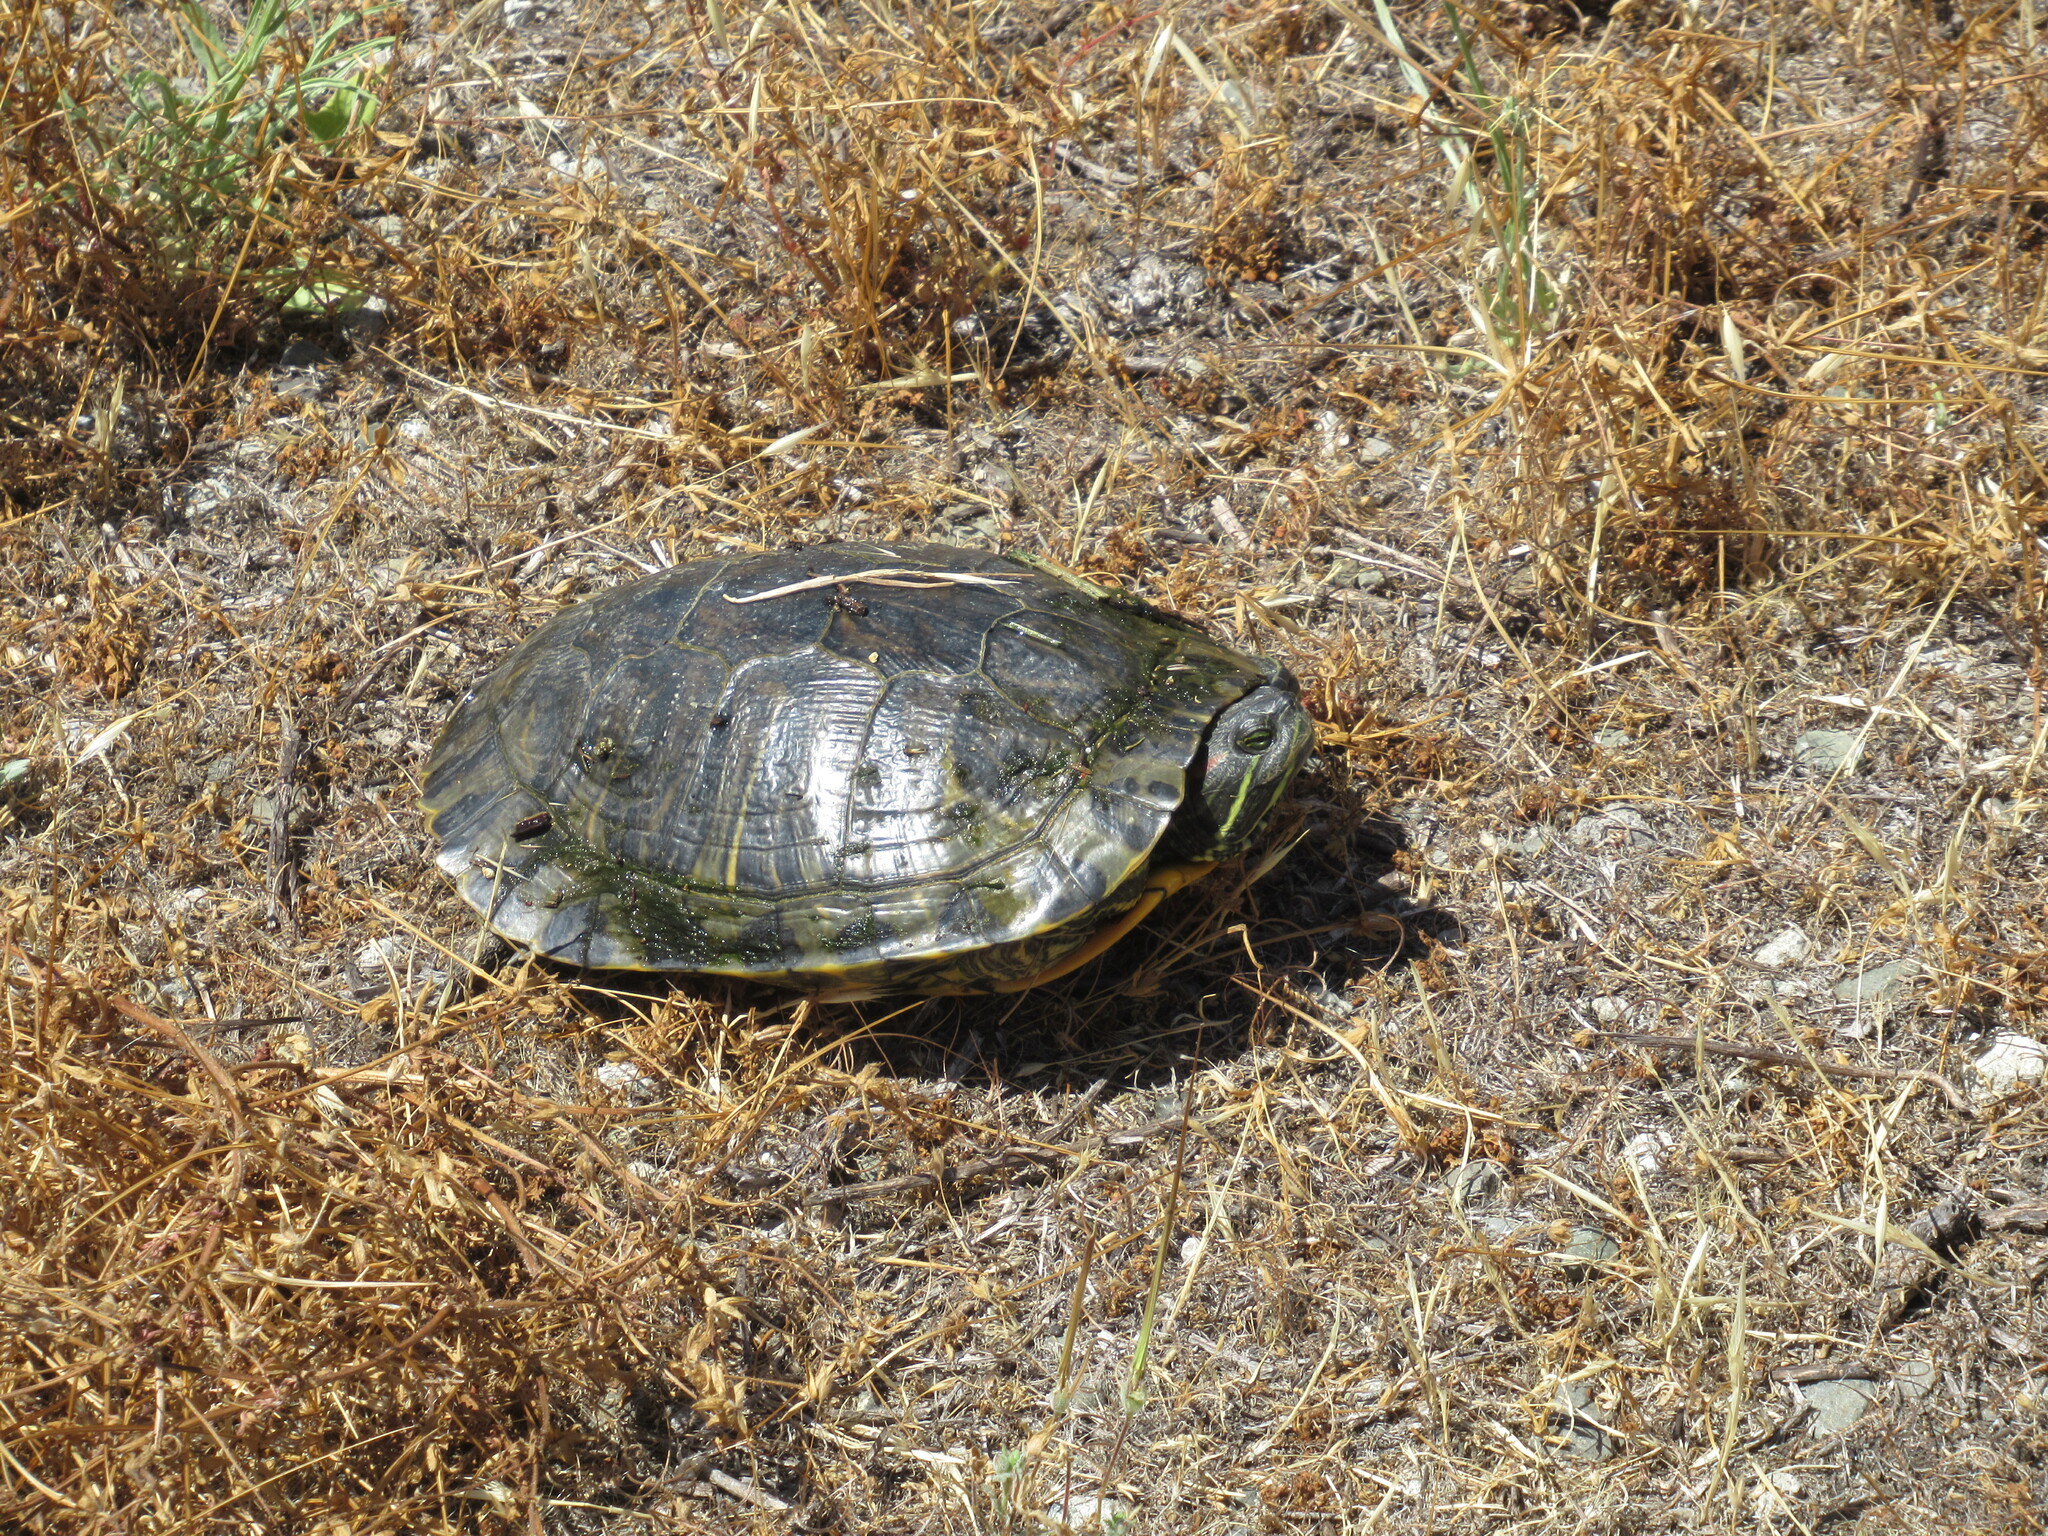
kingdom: Animalia
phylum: Chordata
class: Testudines
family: Emydidae
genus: Trachemys
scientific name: Trachemys scripta
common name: Slider
